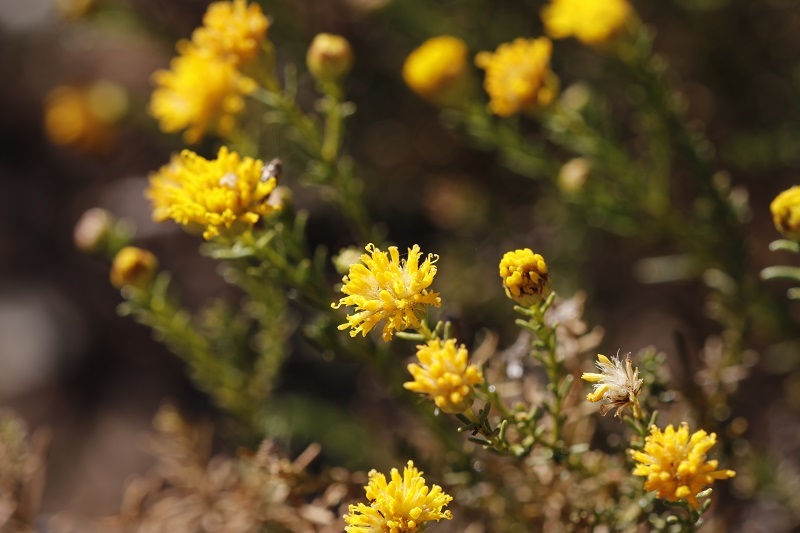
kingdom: Plantae
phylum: Tracheophyta
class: Magnoliopsida
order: Asterales
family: Asteraceae
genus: Chrysocoma
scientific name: Chrysocoma ciliata
